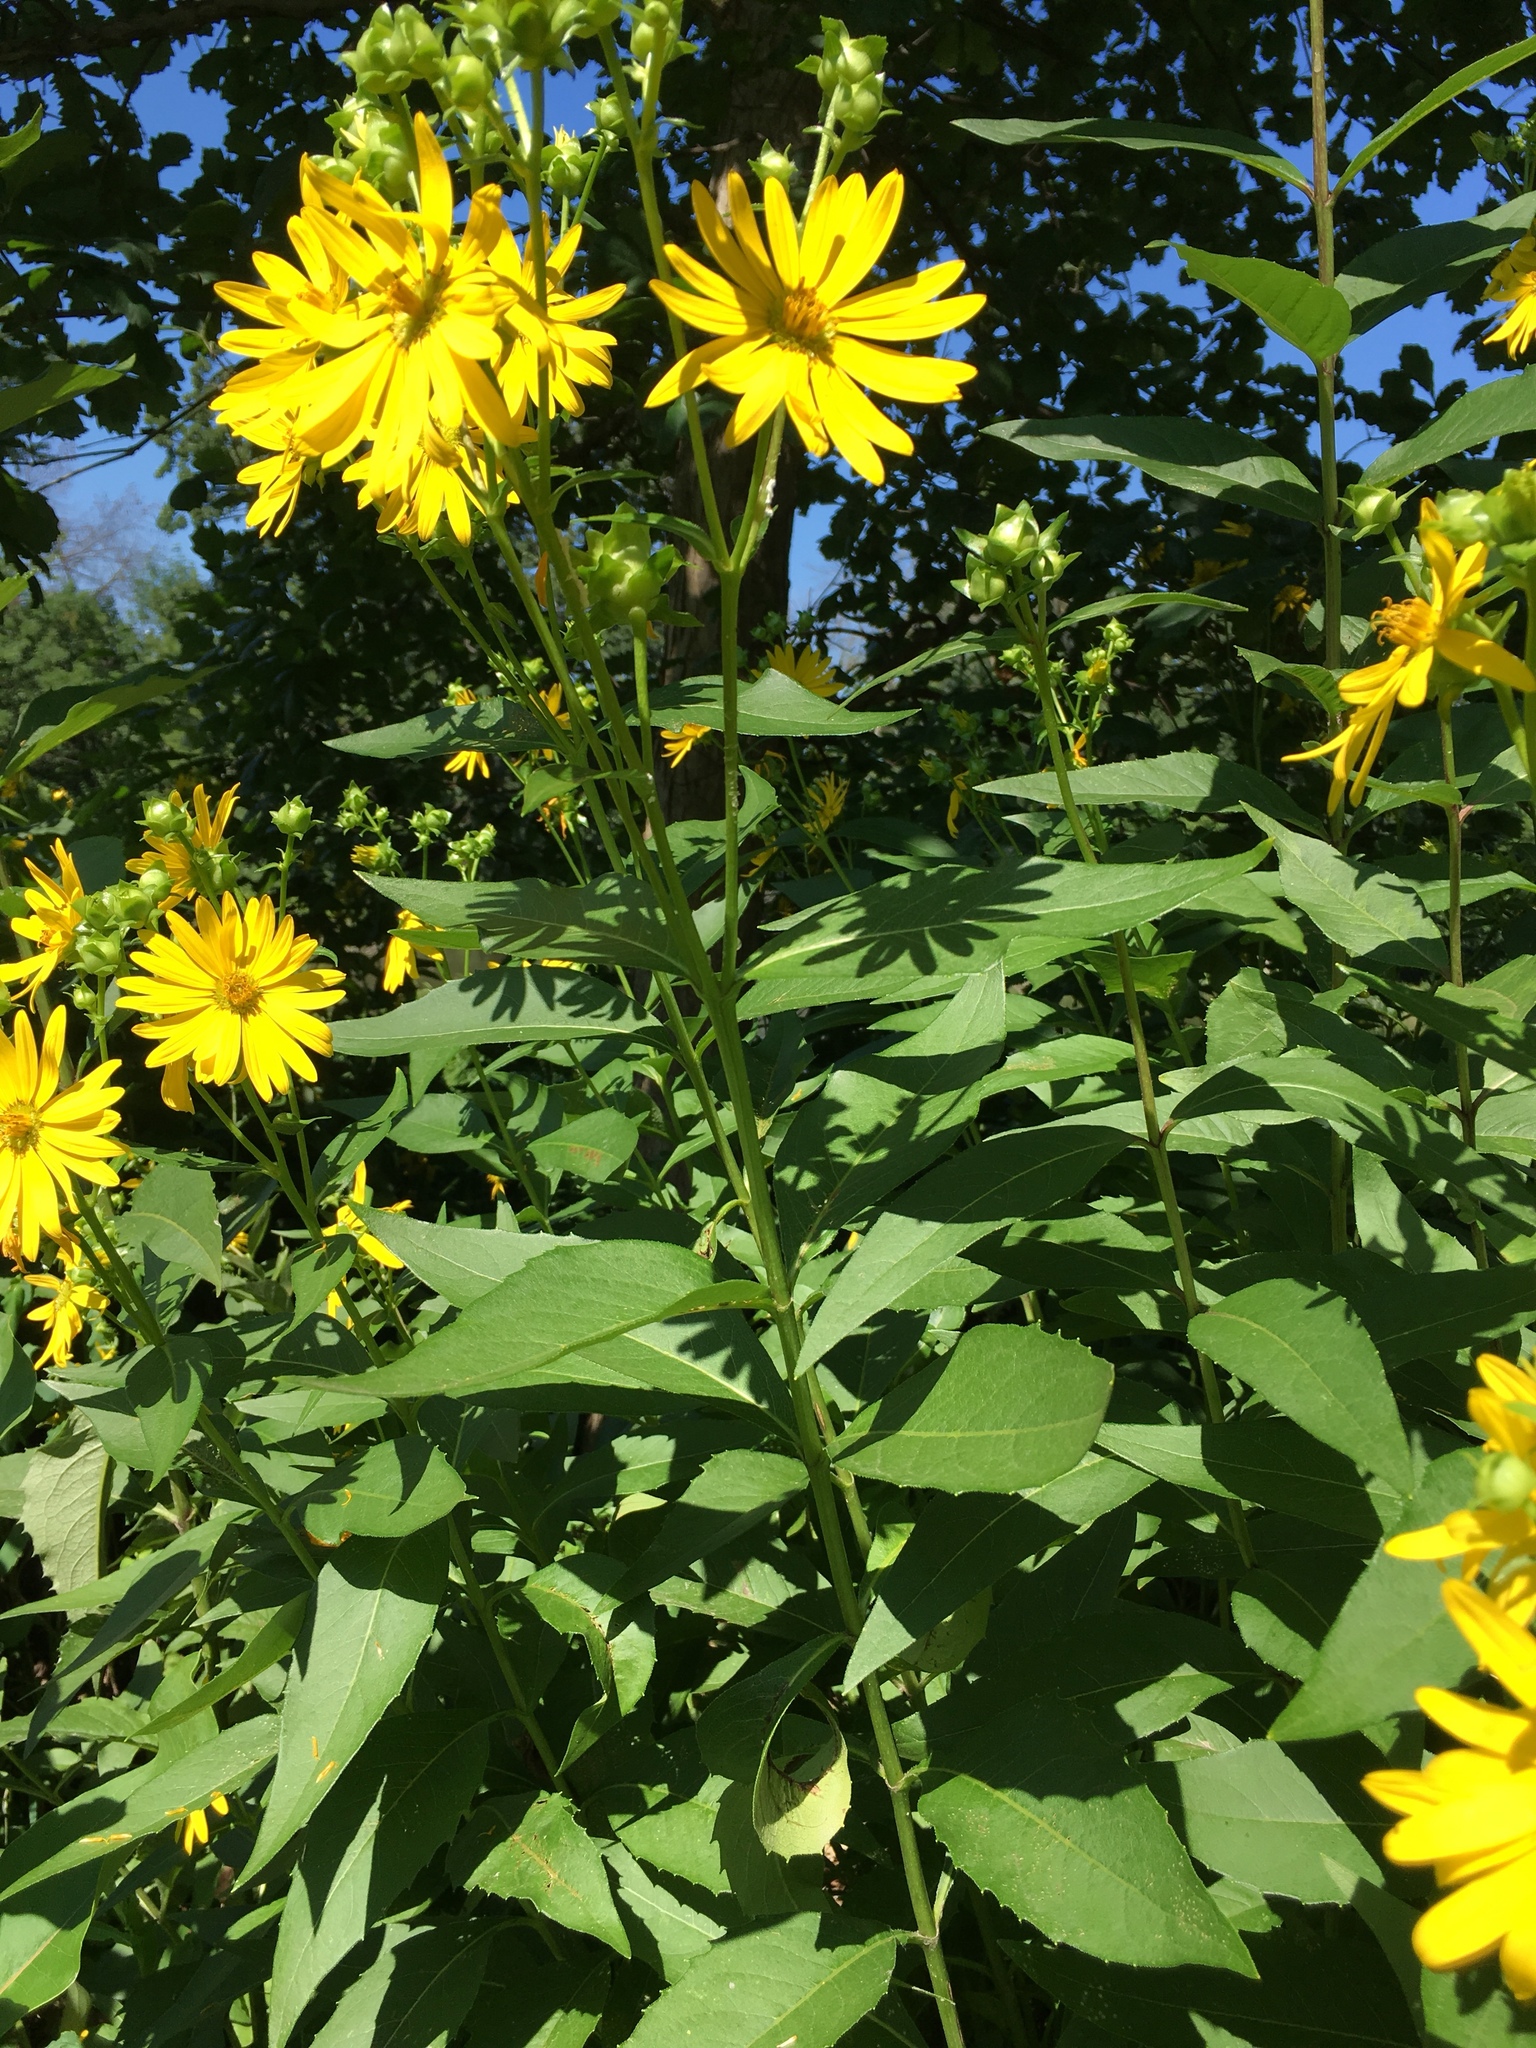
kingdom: Plantae
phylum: Tracheophyta
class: Magnoliopsida
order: Asterales
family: Asteraceae
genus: Silphium
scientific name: Silphium integrifolium
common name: Whole-leaf rosinweed
